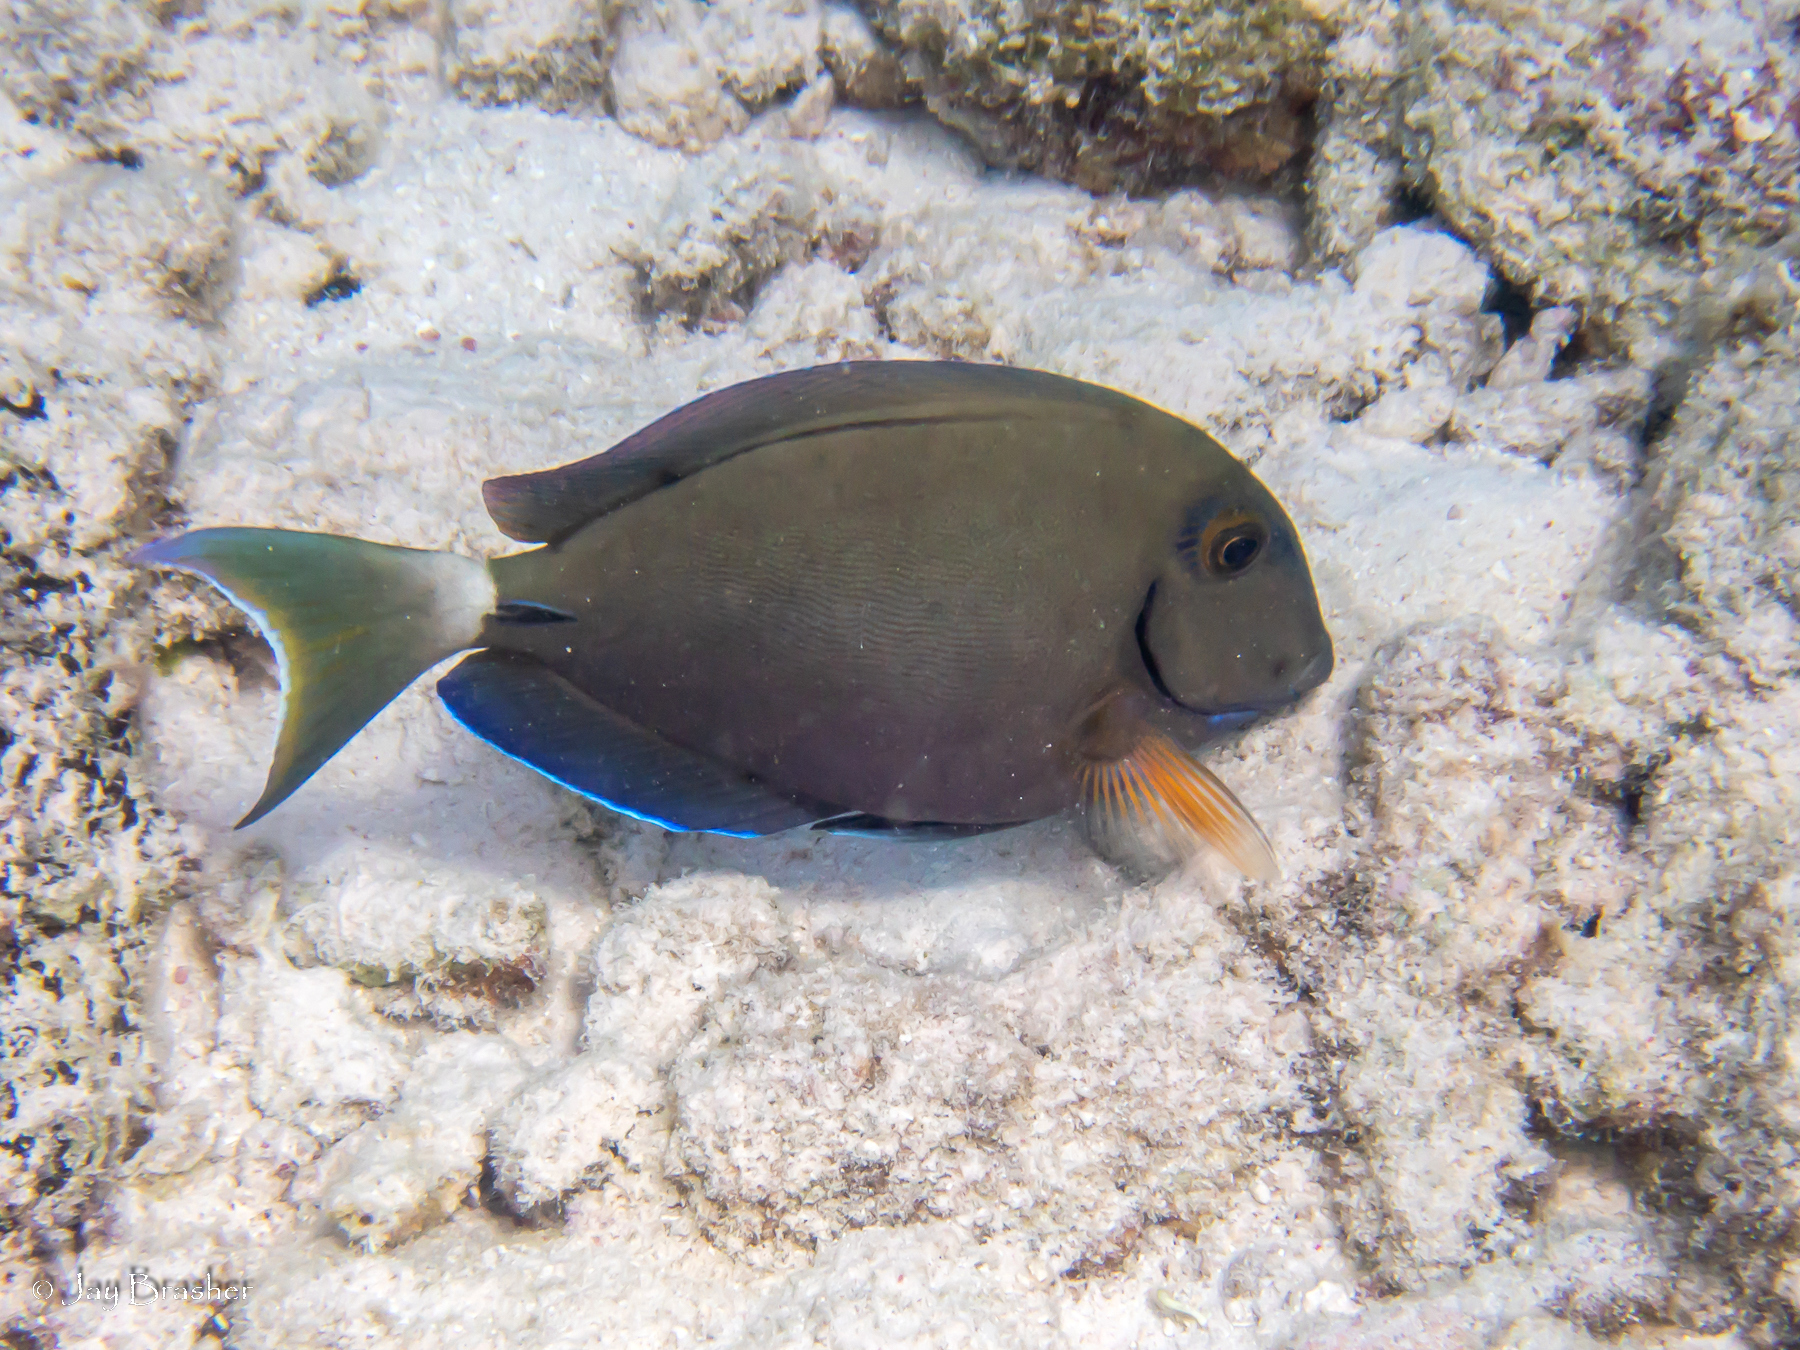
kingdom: Animalia
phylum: Chordata
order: Perciformes
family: Acanthuridae
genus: Acanthurus
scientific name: Acanthurus bahianus
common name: Ocean surgeon
